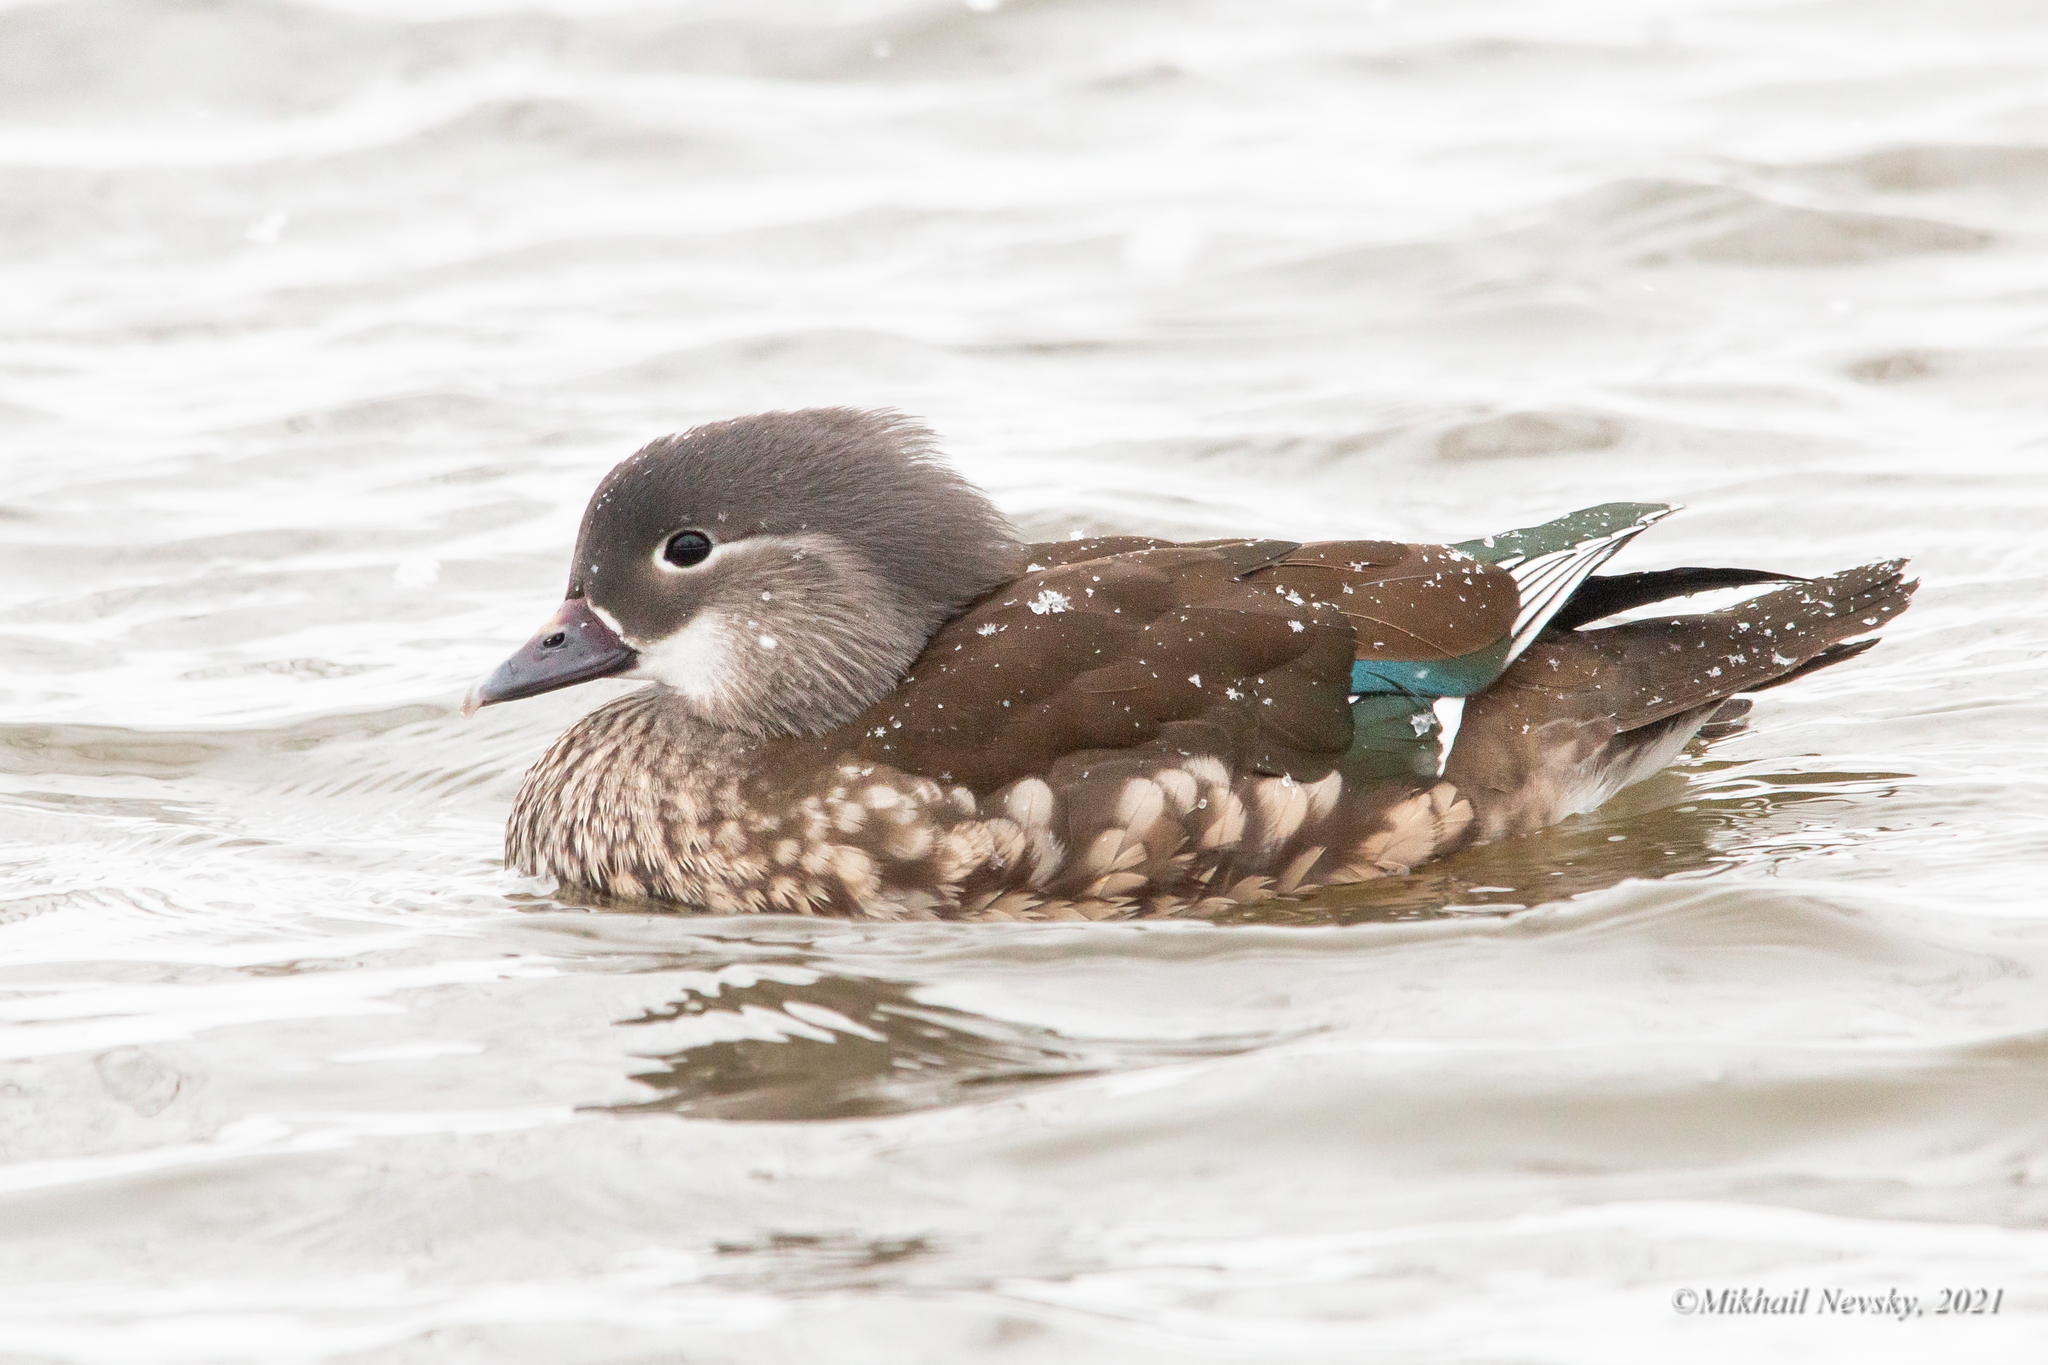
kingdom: Animalia
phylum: Chordata
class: Aves
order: Anseriformes
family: Anatidae
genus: Aix
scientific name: Aix galericulata
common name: Mandarin duck
